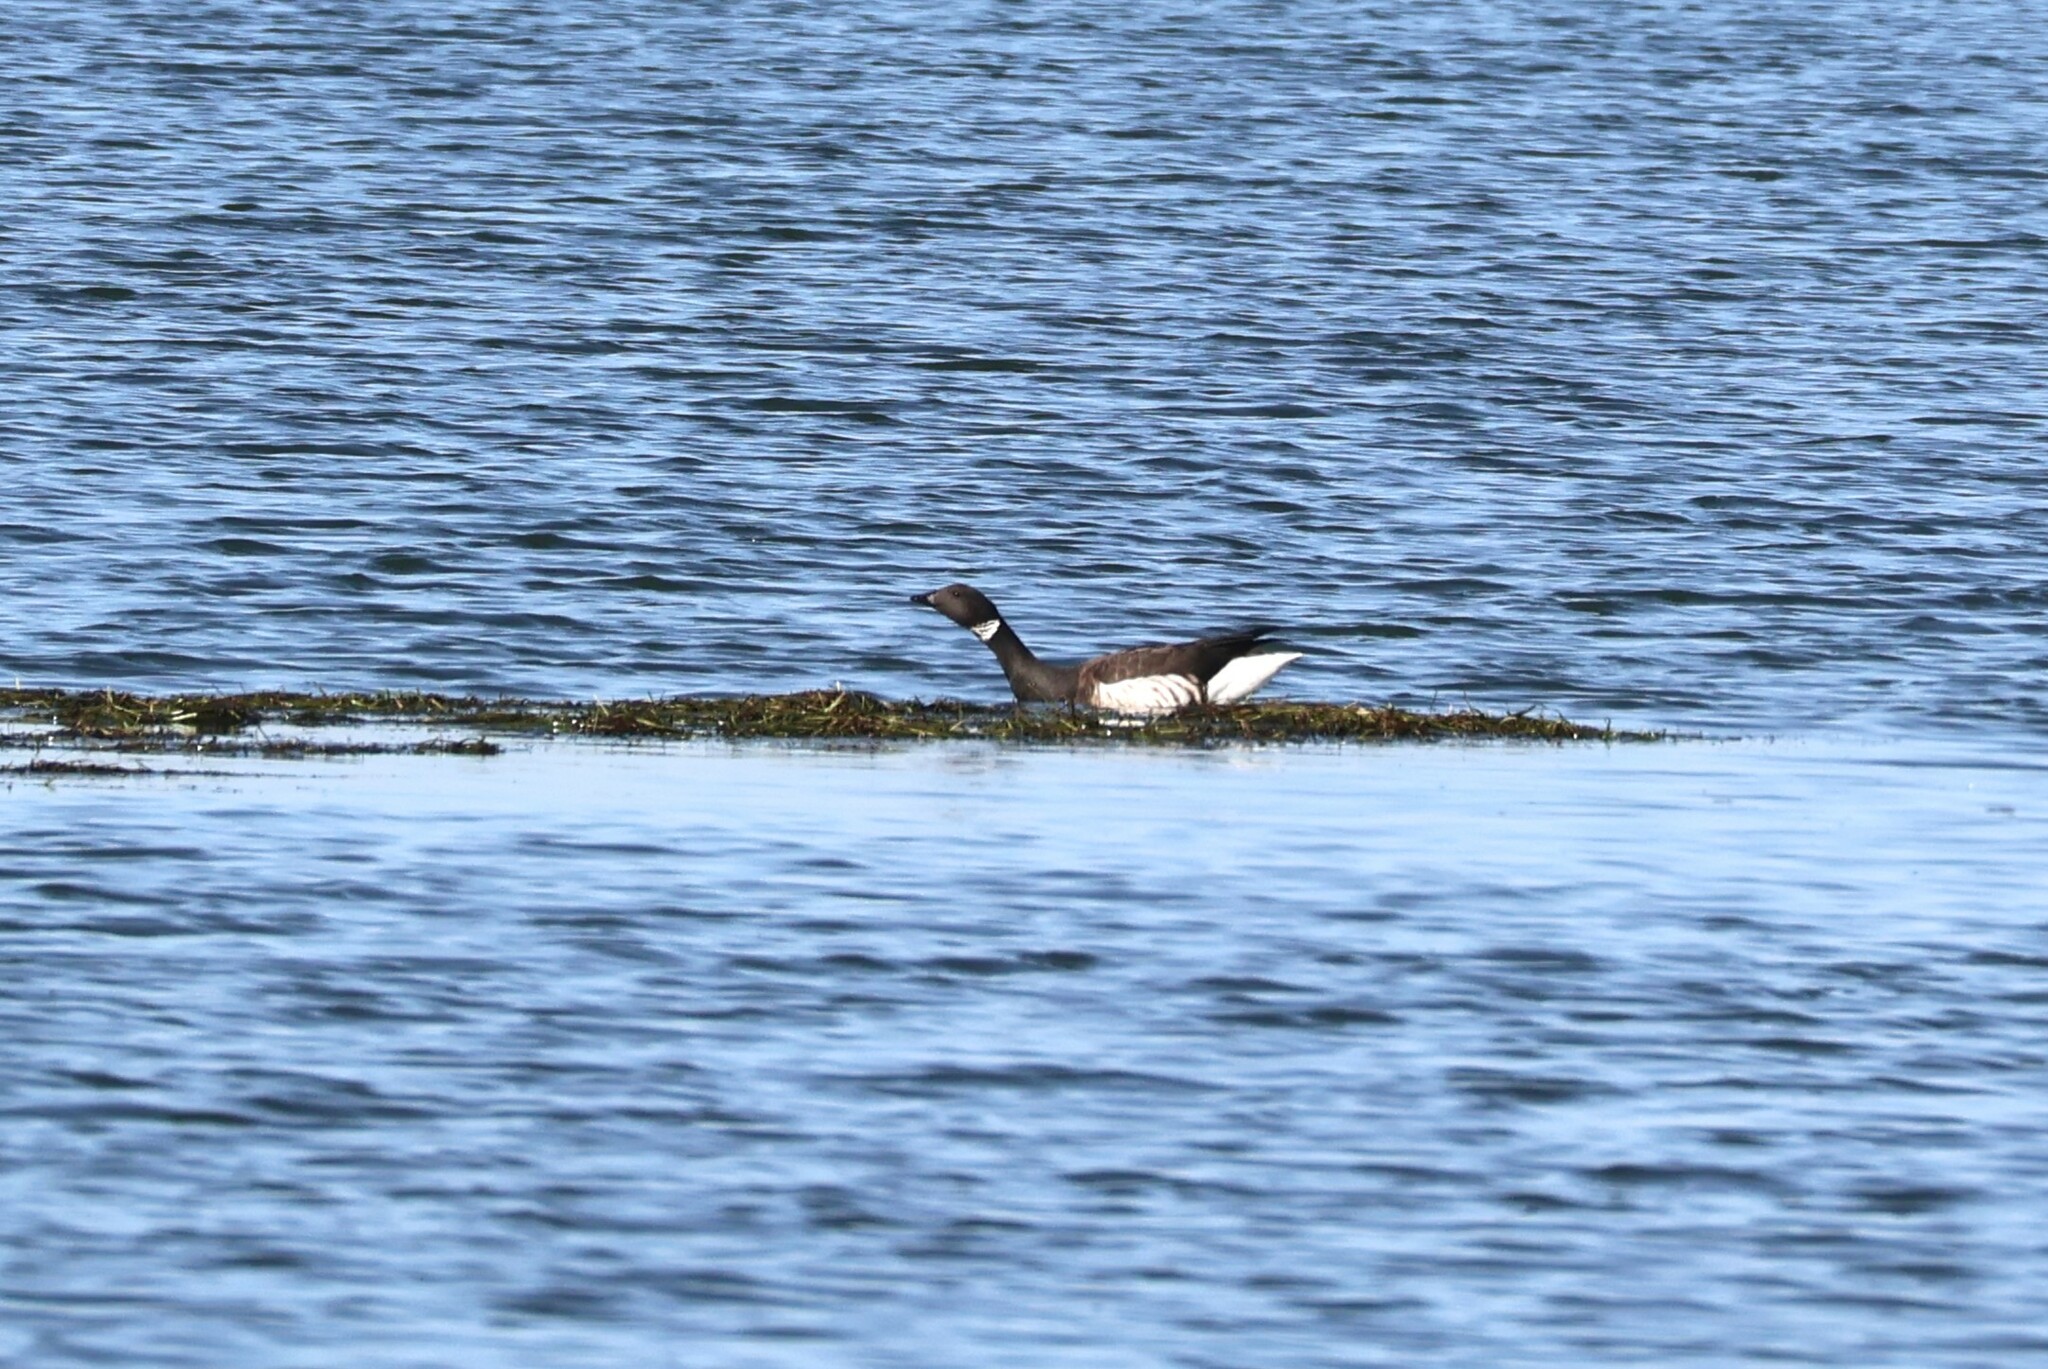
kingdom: Animalia
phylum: Chordata
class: Aves
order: Anseriformes
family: Anatidae
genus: Branta
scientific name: Branta bernicla
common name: Brant goose
